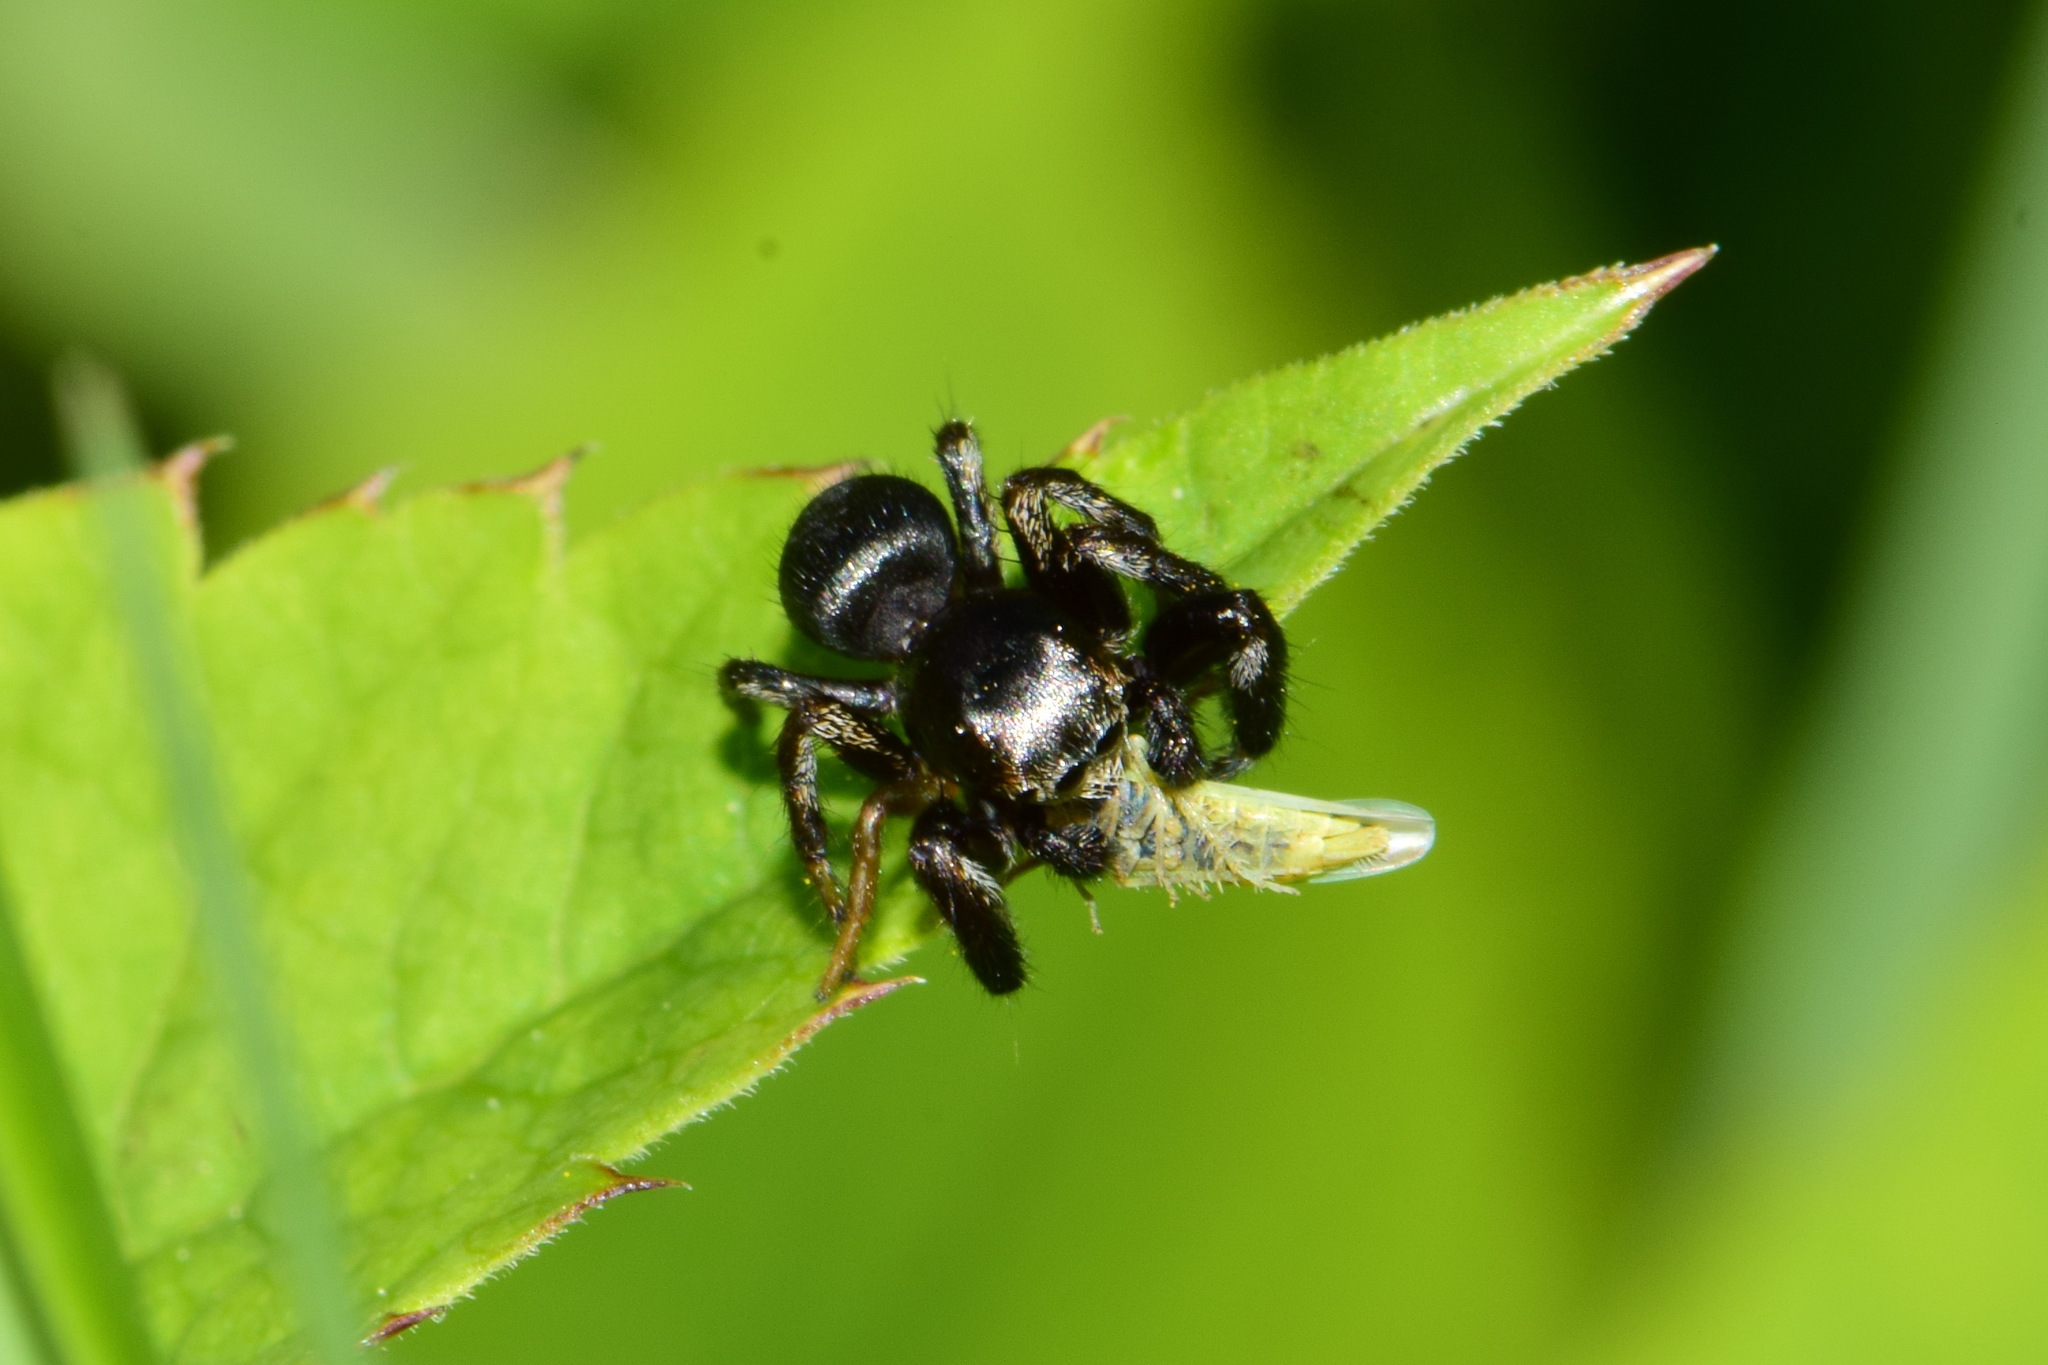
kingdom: Animalia
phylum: Arthropoda
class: Arachnida
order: Araneae
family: Salticidae
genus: Evarcha
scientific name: Evarcha arcuata
